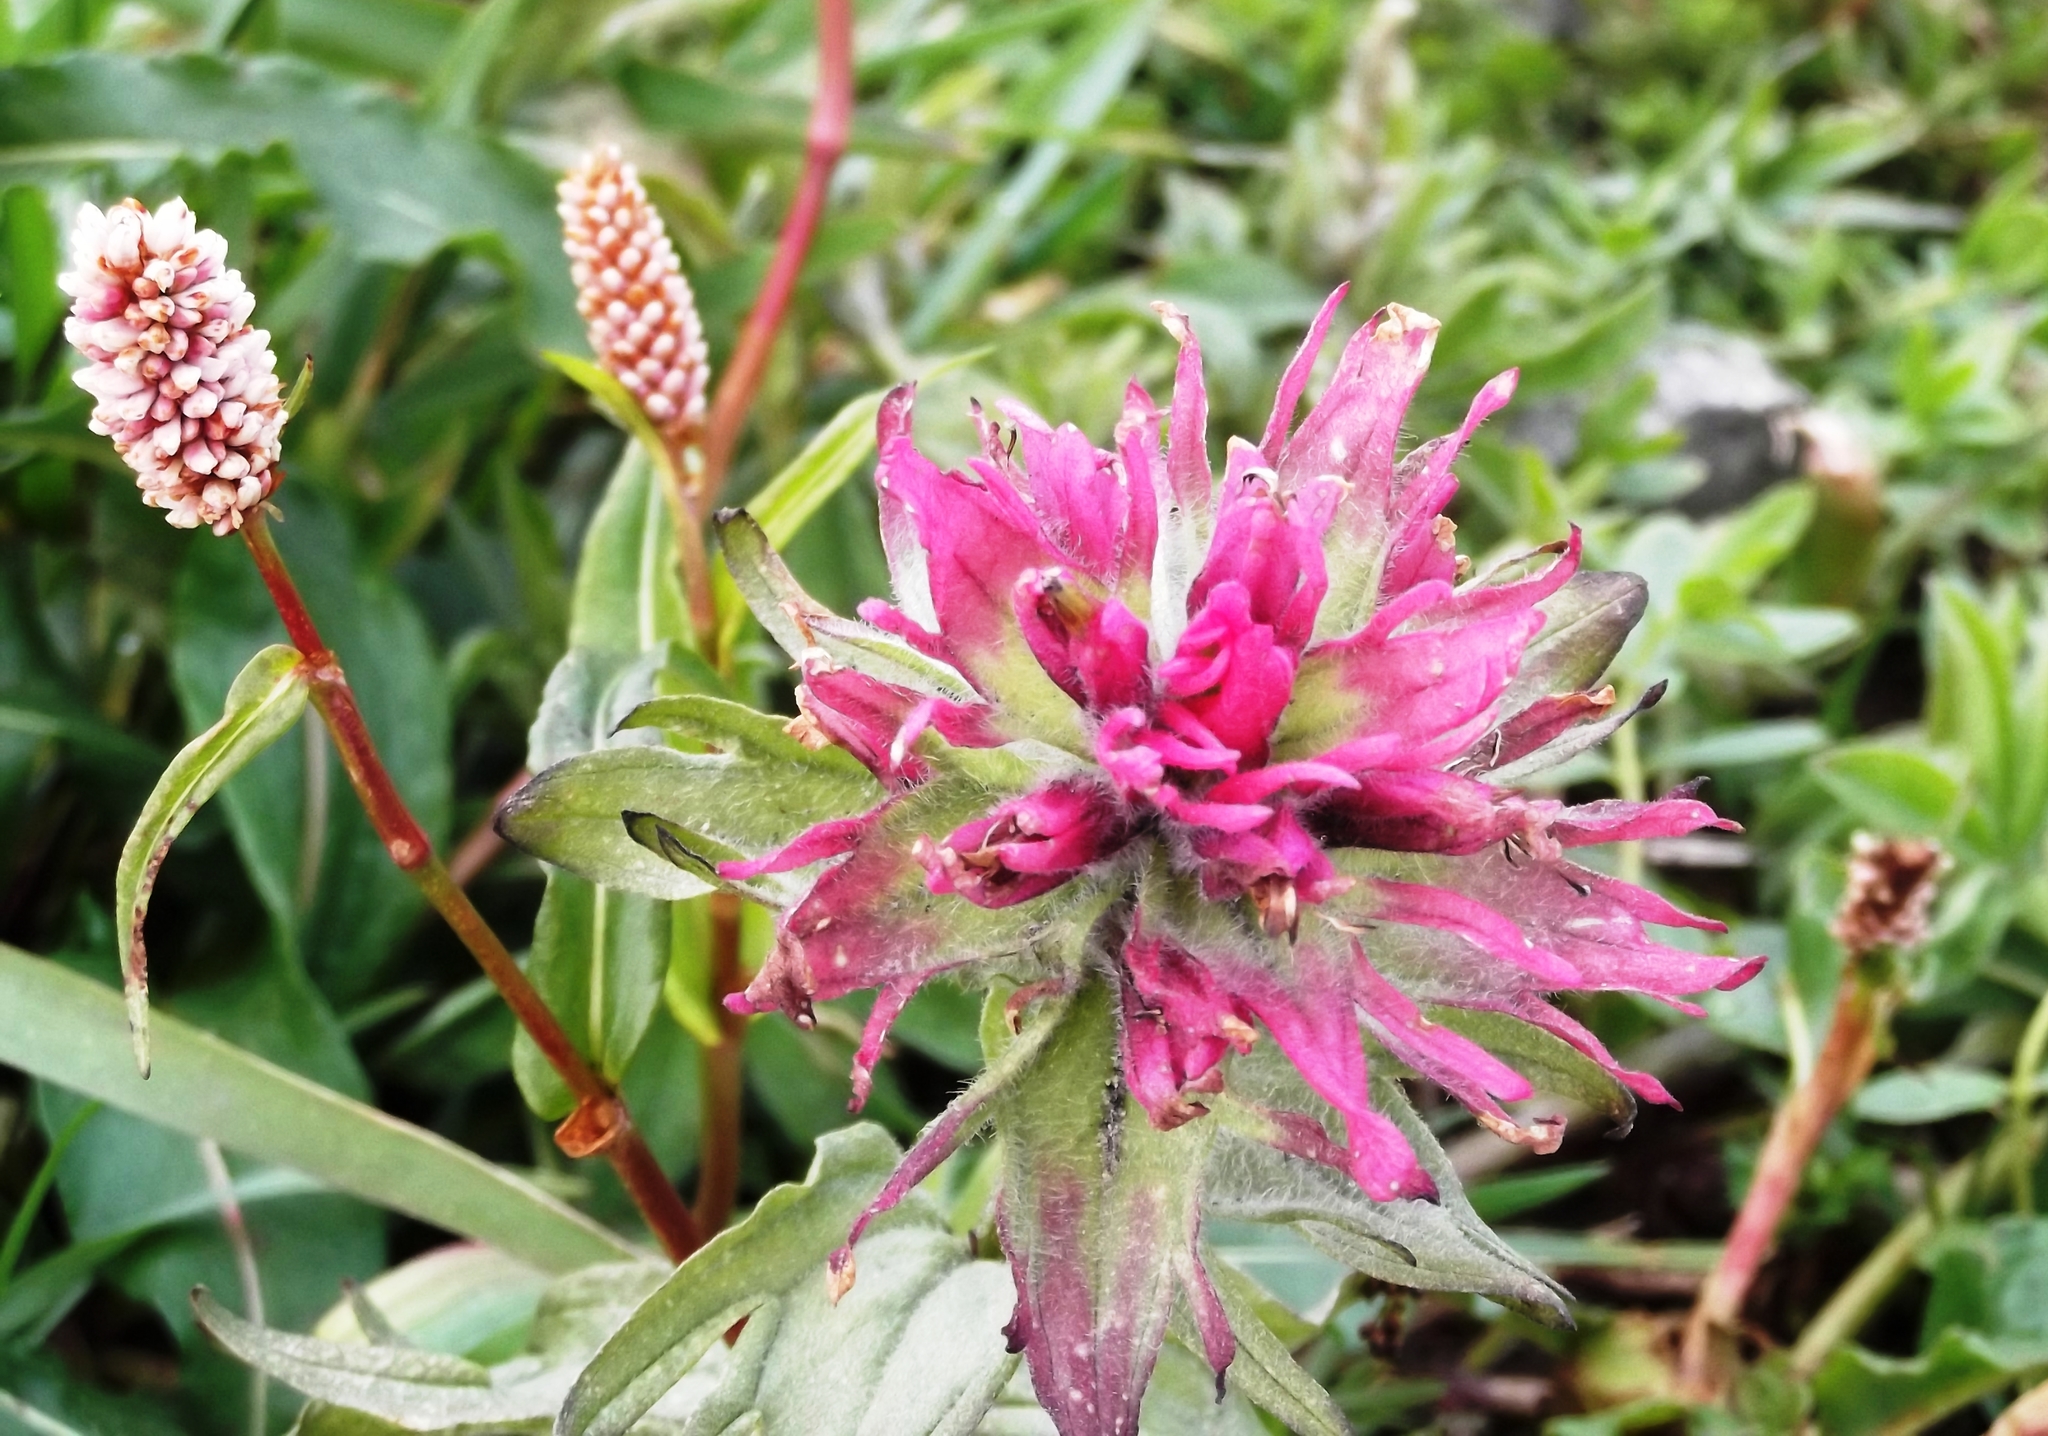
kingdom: Plantae
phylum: Tracheophyta
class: Magnoliopsida
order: Lamiales
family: Orobanchaceae
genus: Castilleja
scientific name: Castilleja parviflora
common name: Mountain paintbrush
